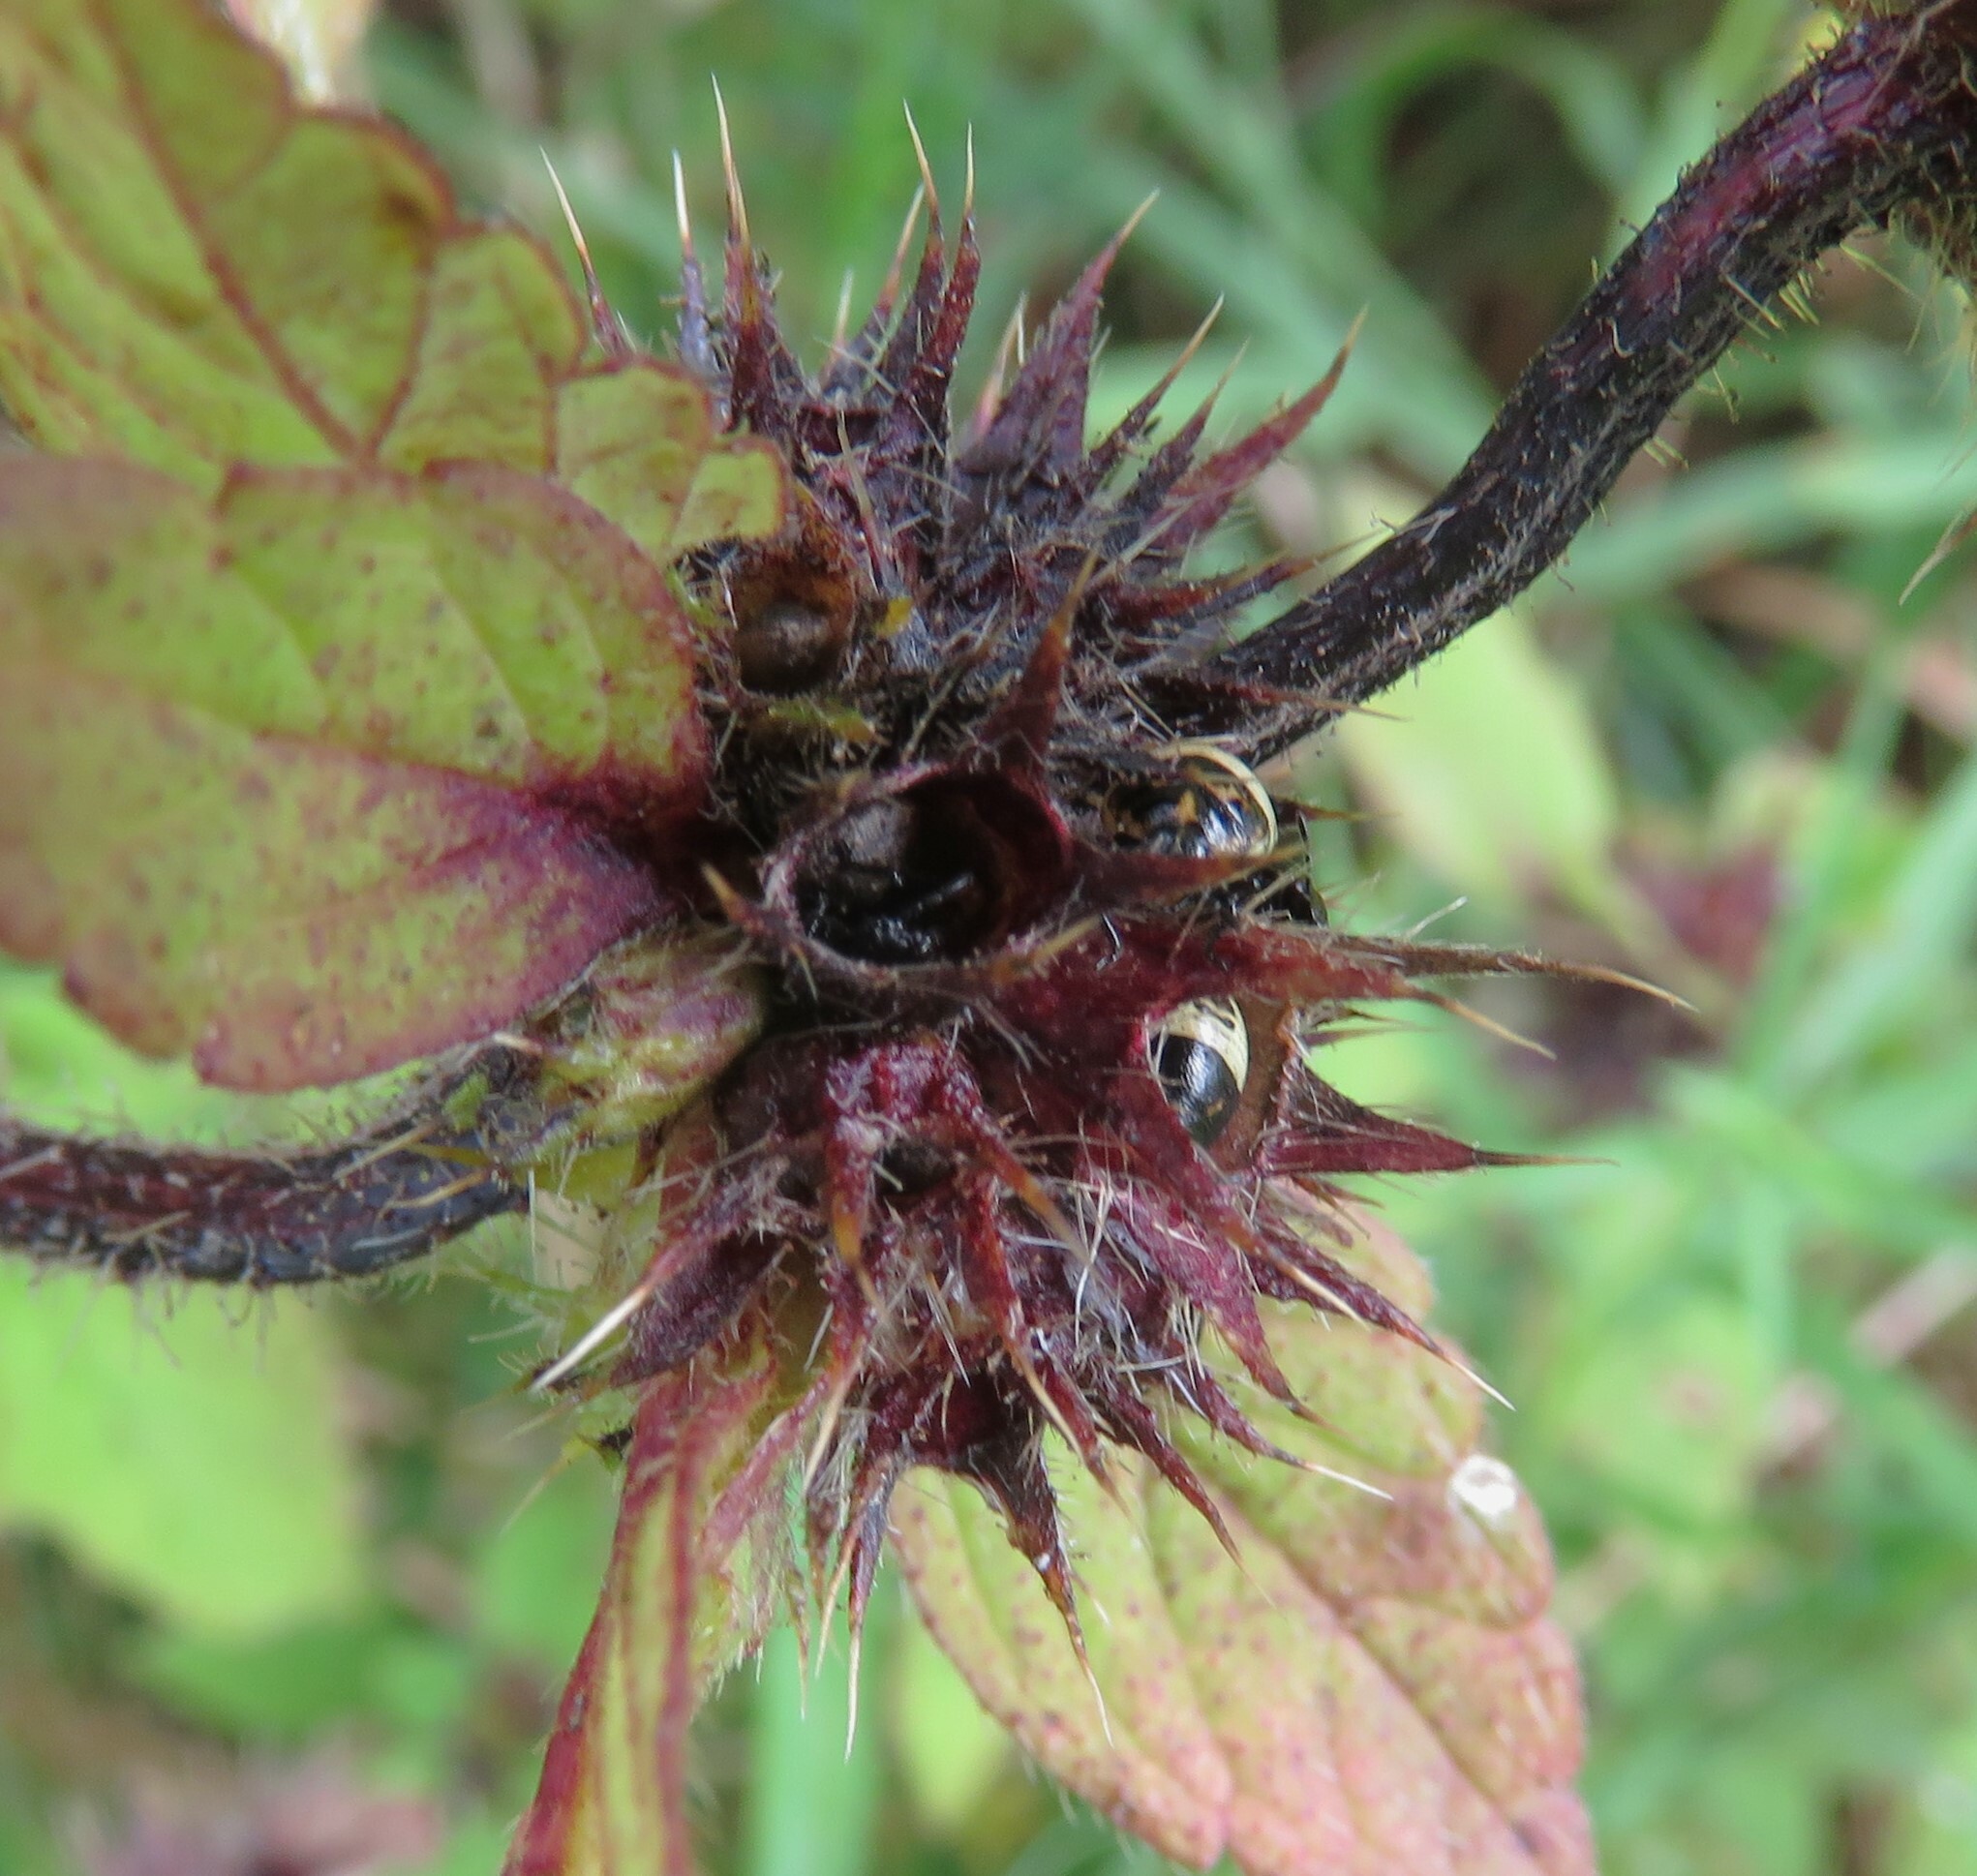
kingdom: Animalia
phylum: Arthropoda
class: Insecta
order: Hemiptera
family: Pentatomidae
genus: Cosmopepla
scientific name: Cosmopepla lintneriana
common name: Twice-stabbed stink bug
